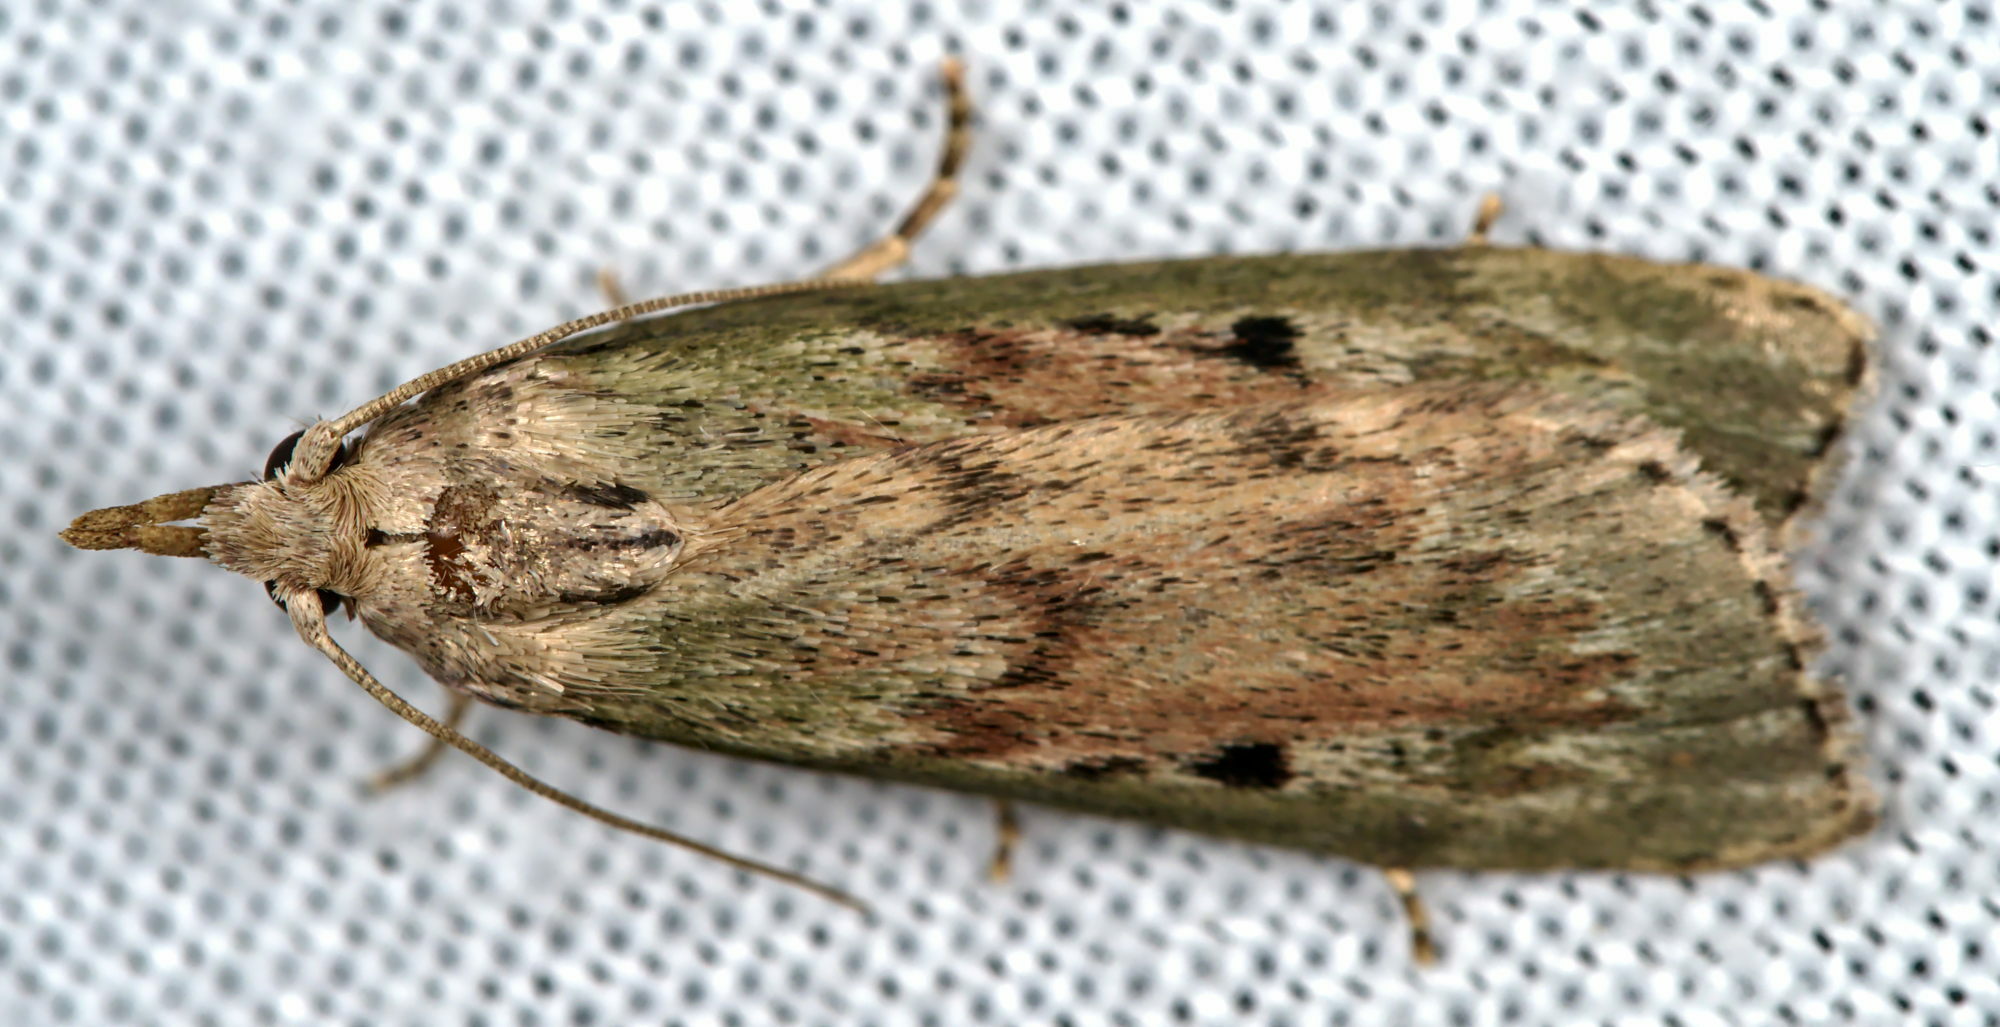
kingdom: Animalia
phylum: Arthropoda
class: Insecta
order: Lepidoptera
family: Pyralidae
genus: Aphomia
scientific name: Aphomia sociella
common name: Bee moth
